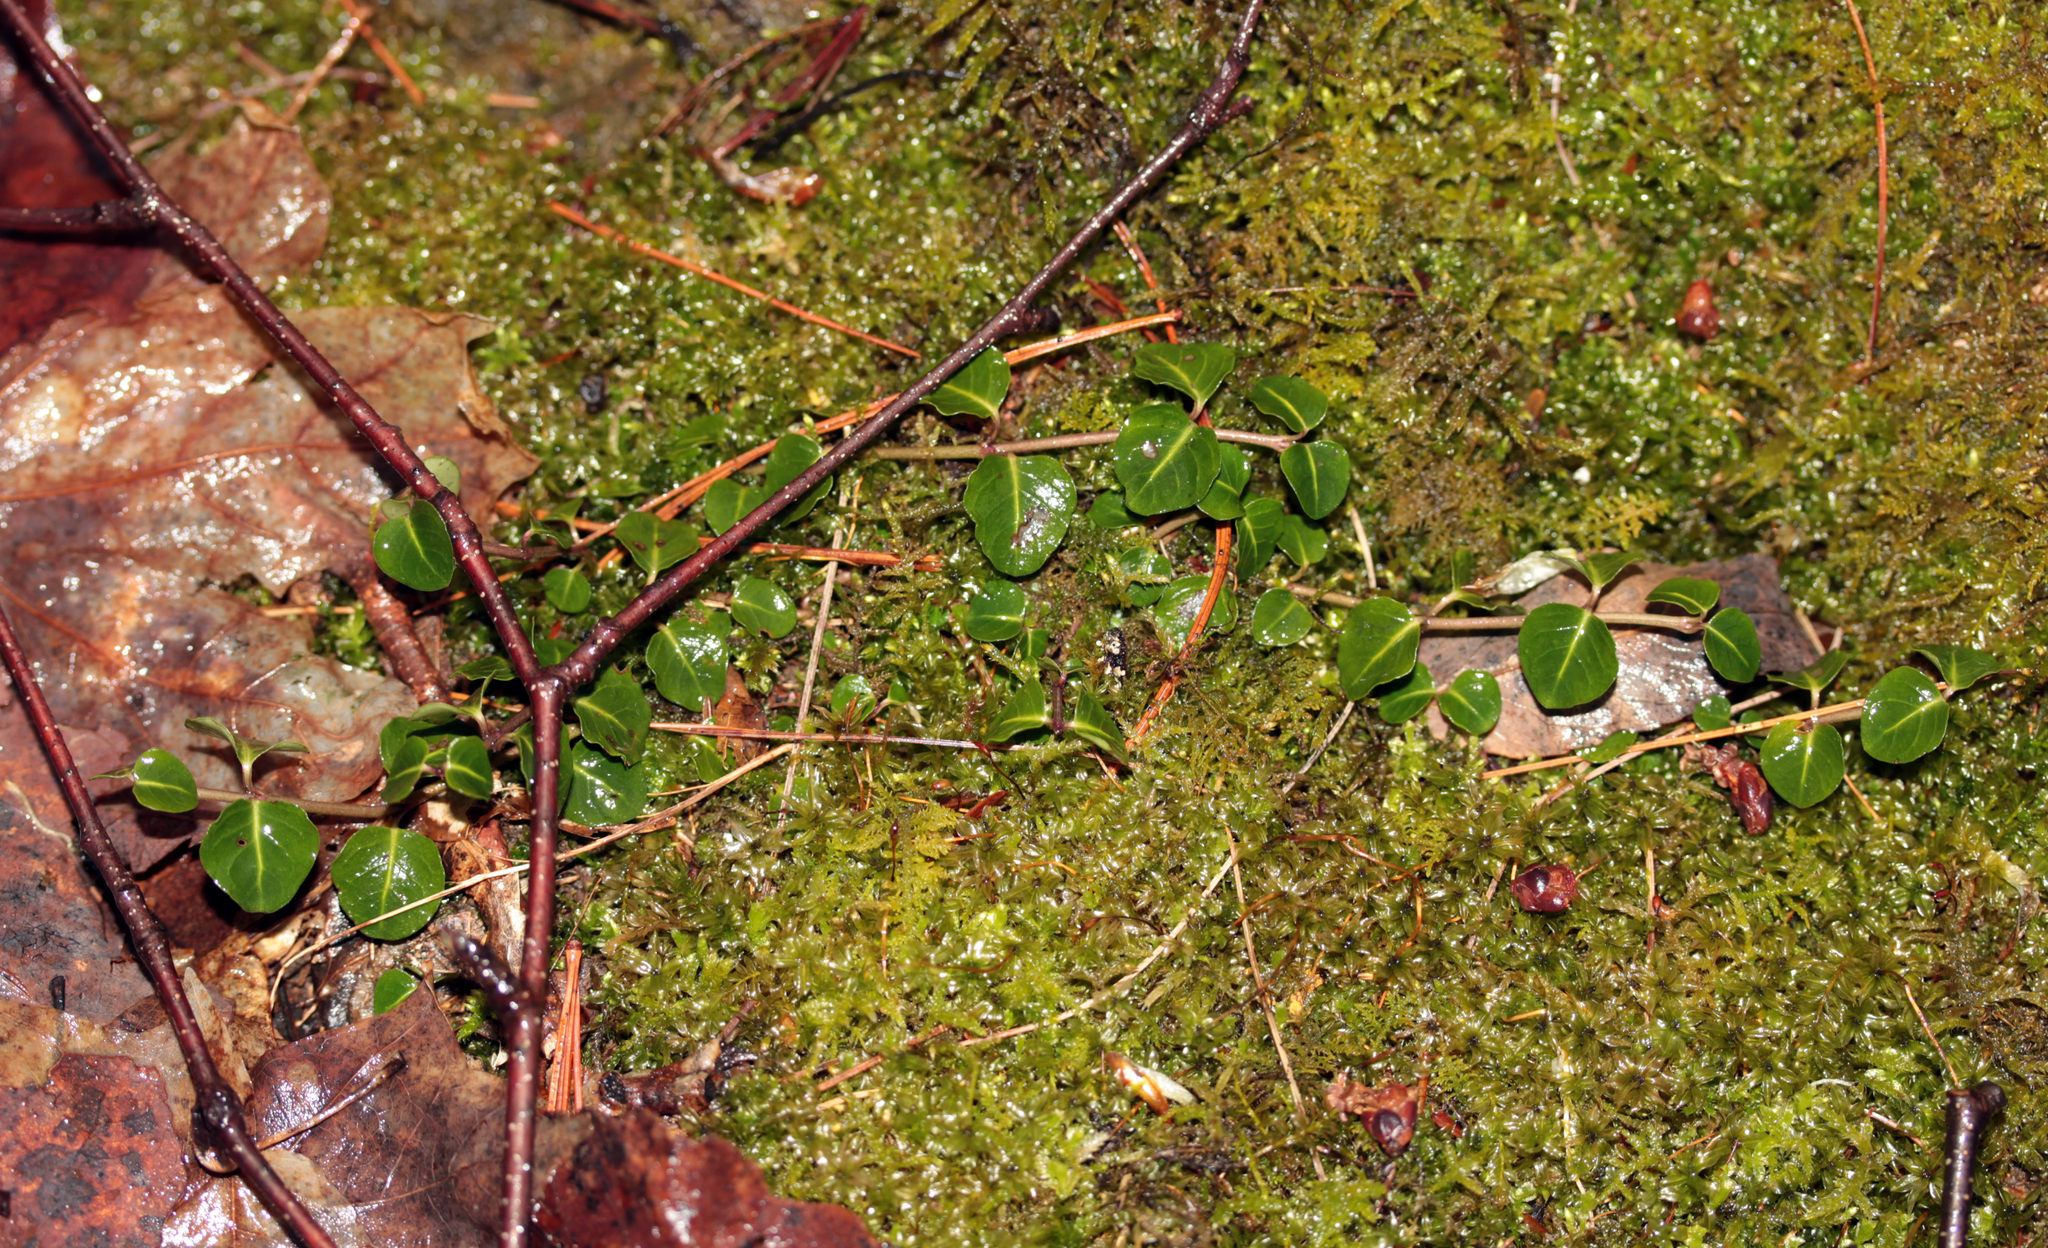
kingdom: Plantae
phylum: Tracheophyta
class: Magnoliopsida
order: Gentianales
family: Rubiaceae
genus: Mitchella
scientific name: Mitchella repens
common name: Partridge-berry
